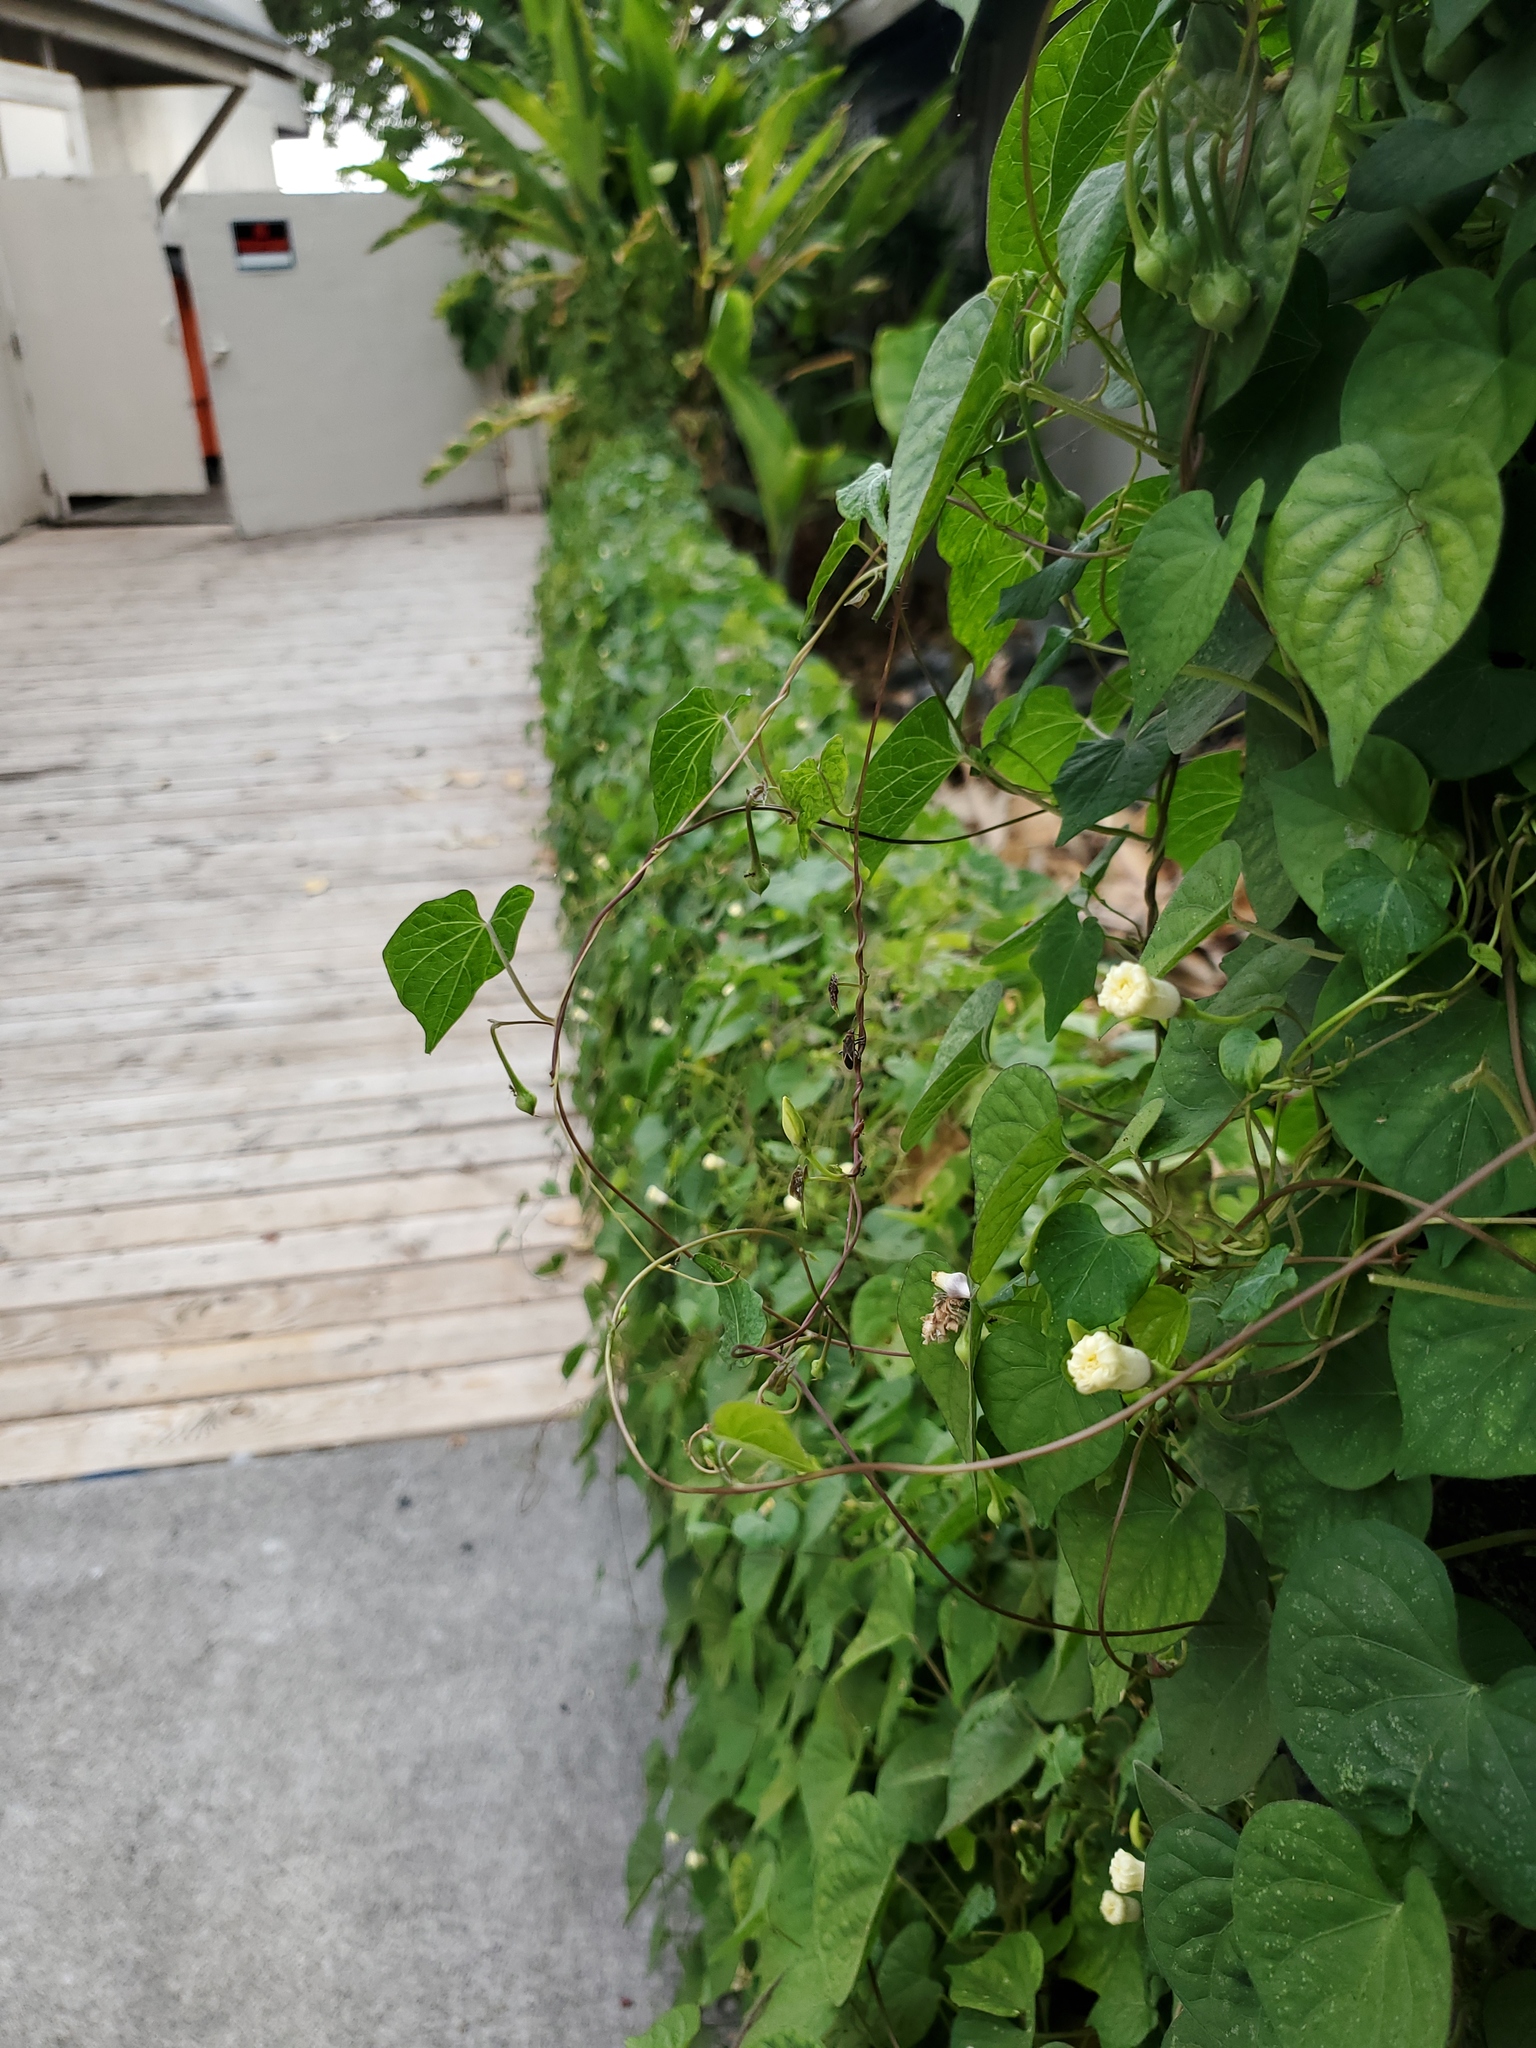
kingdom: Plantae
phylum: Tracheophyta
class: Magnoliopsida
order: Solanales
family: Convolvulaceae
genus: Ipomoea
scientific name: Ipomoea obscura
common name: Obscure morning-glory
